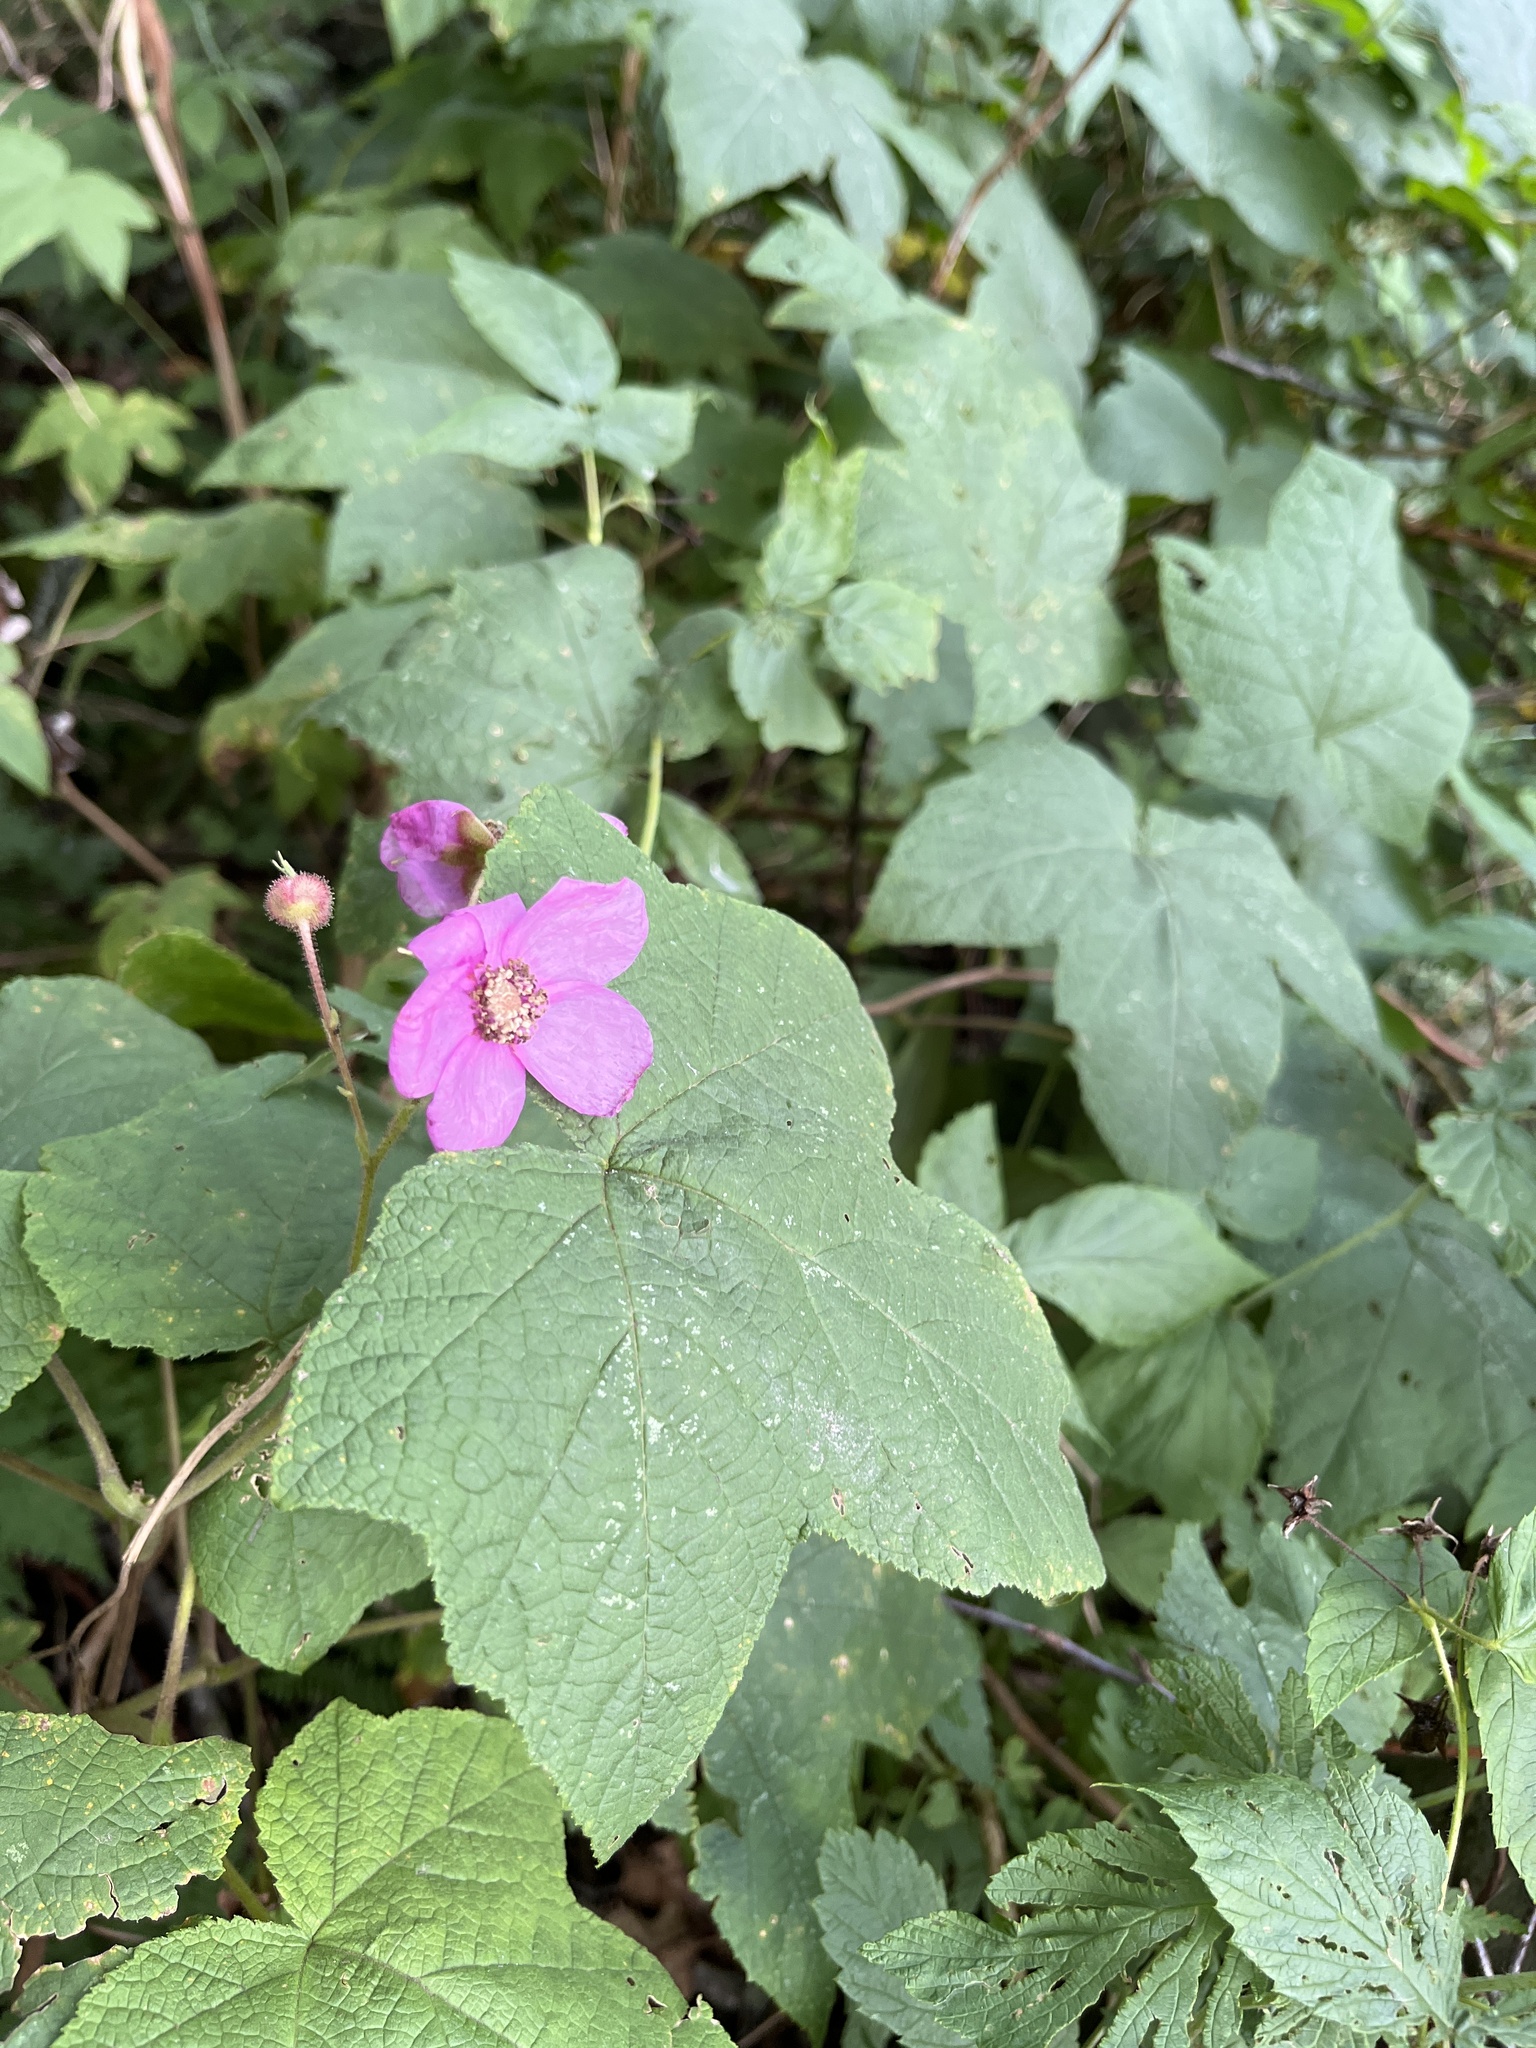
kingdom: Plantae
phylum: Tracheophyta
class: Magnoliopsida
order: Rosales
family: Rosaceae
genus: Rubus
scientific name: Rubus odoratus
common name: Purple-flowered raspberry
